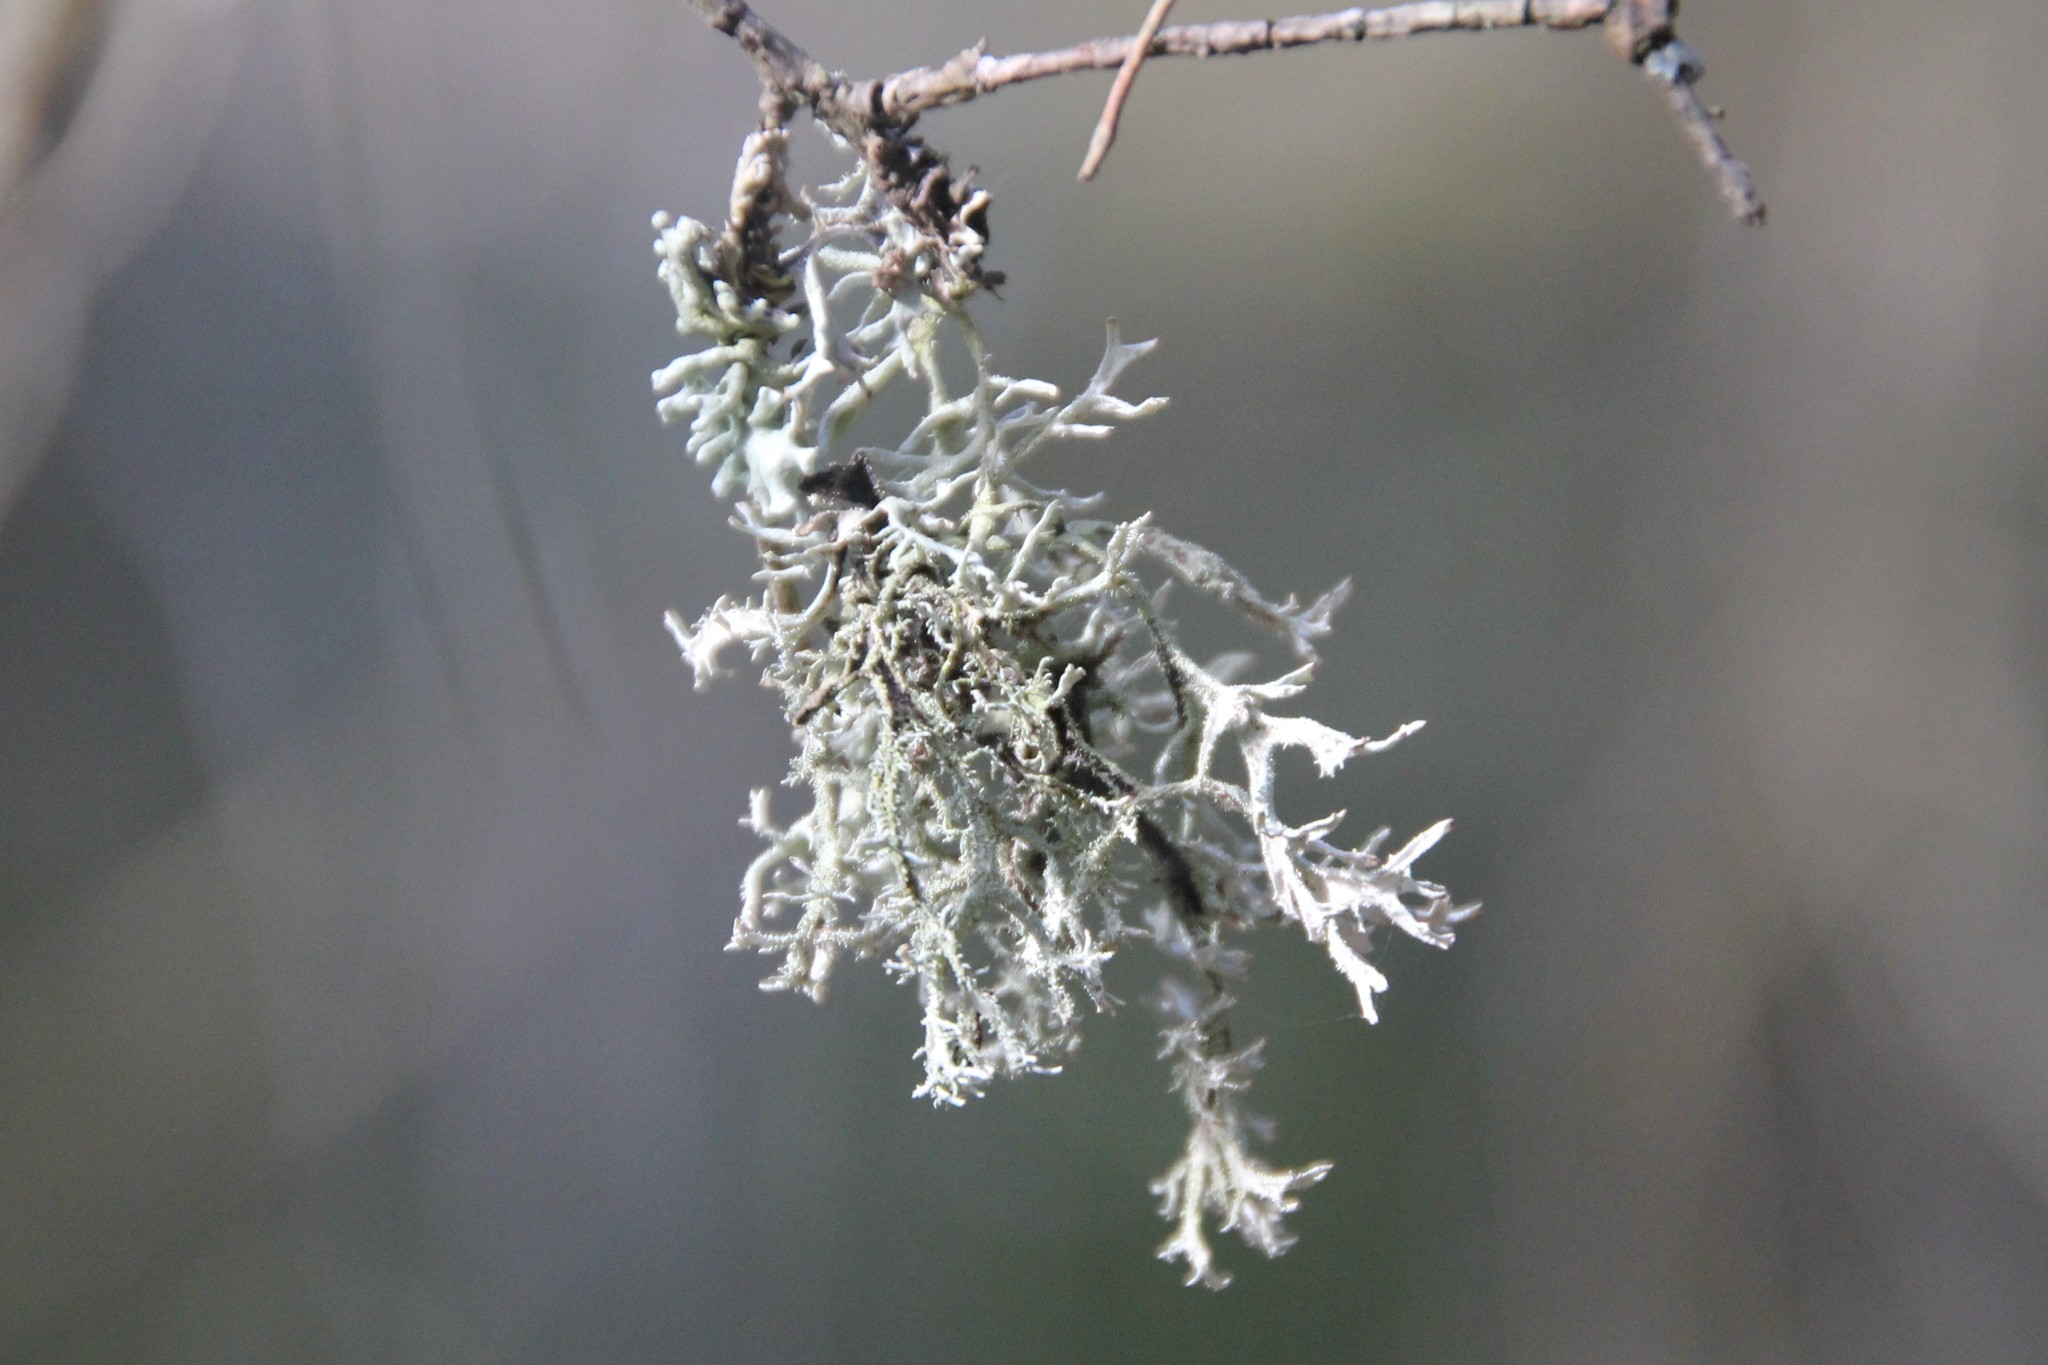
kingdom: Fungi
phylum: Ascomycota
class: Lecanoromycetes
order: Lecanorales
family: Parmeliaceae
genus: Pseudevernia
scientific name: Pseudevernia furfuracea
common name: Tree moss
